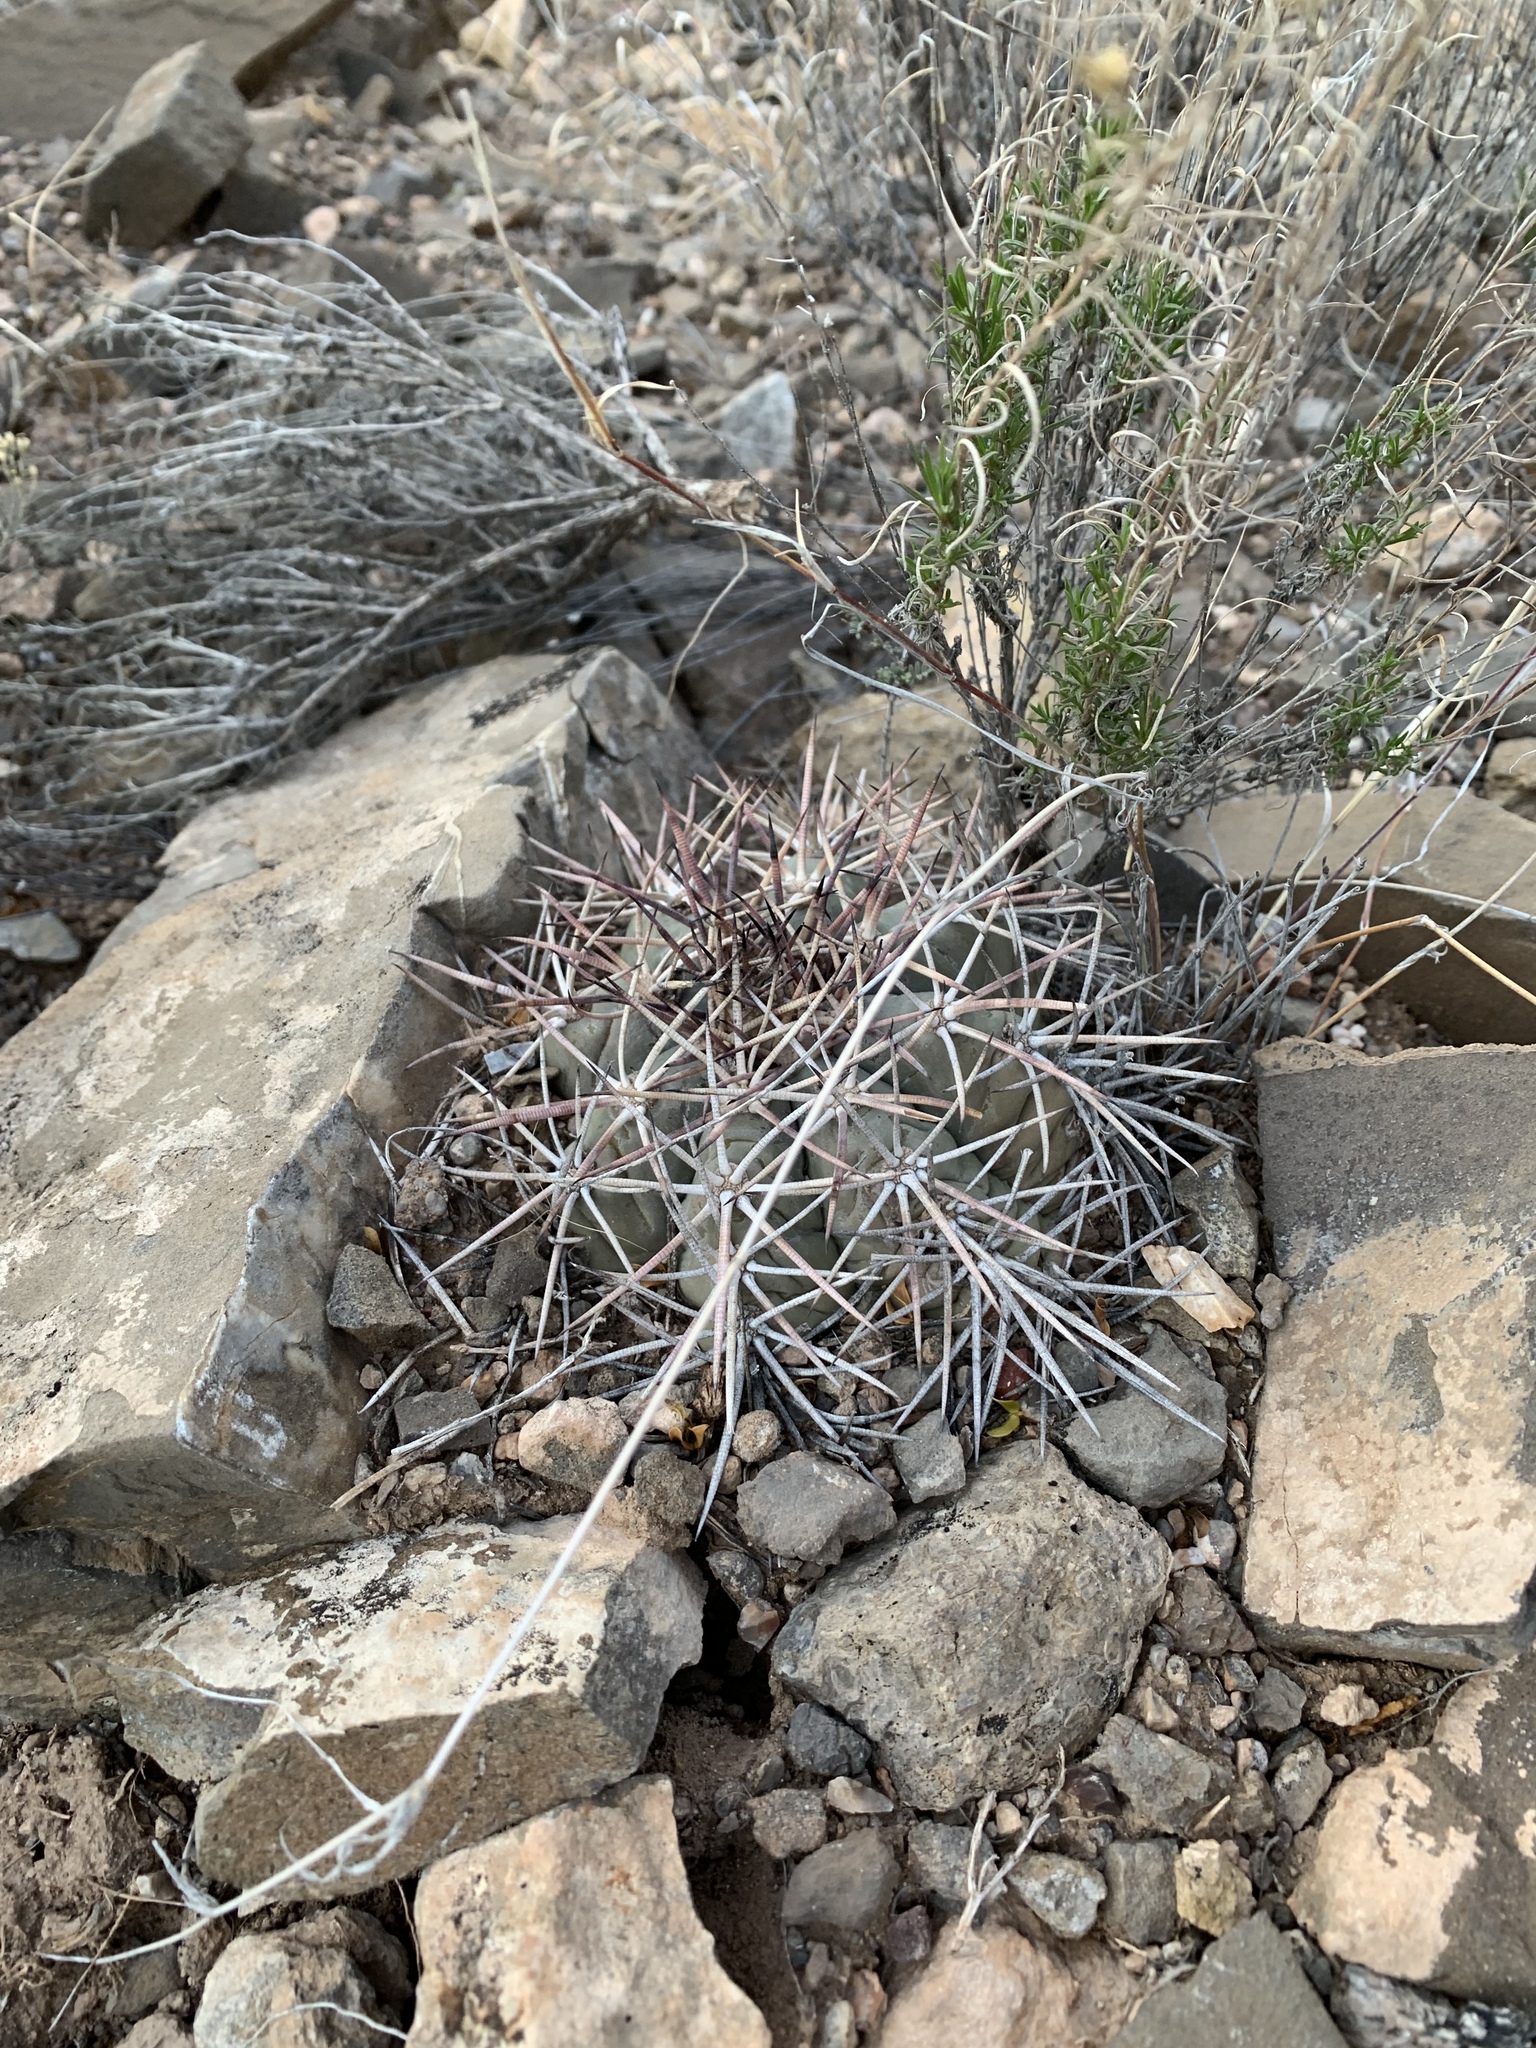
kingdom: Plantae
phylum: Tracheophyta
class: Magnoliopsida
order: Caryophyllales
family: Cactaceae
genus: Echinocactus
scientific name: Echinocactus horizonthalonius
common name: Devilshead
